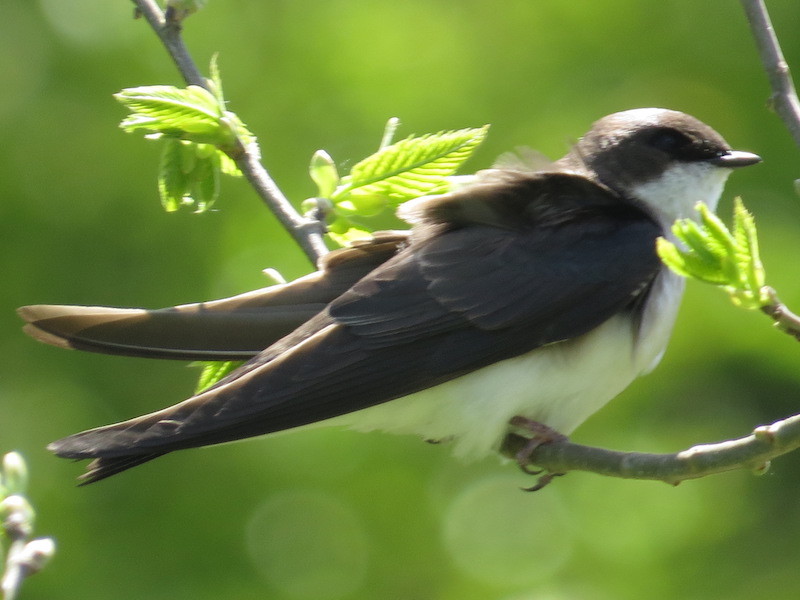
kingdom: Animalia
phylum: Chordata
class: Aves
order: Passeriformes
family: Hirundinidae
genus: Tachycineta
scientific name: Tachycineta bicolor
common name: Tree swallow
